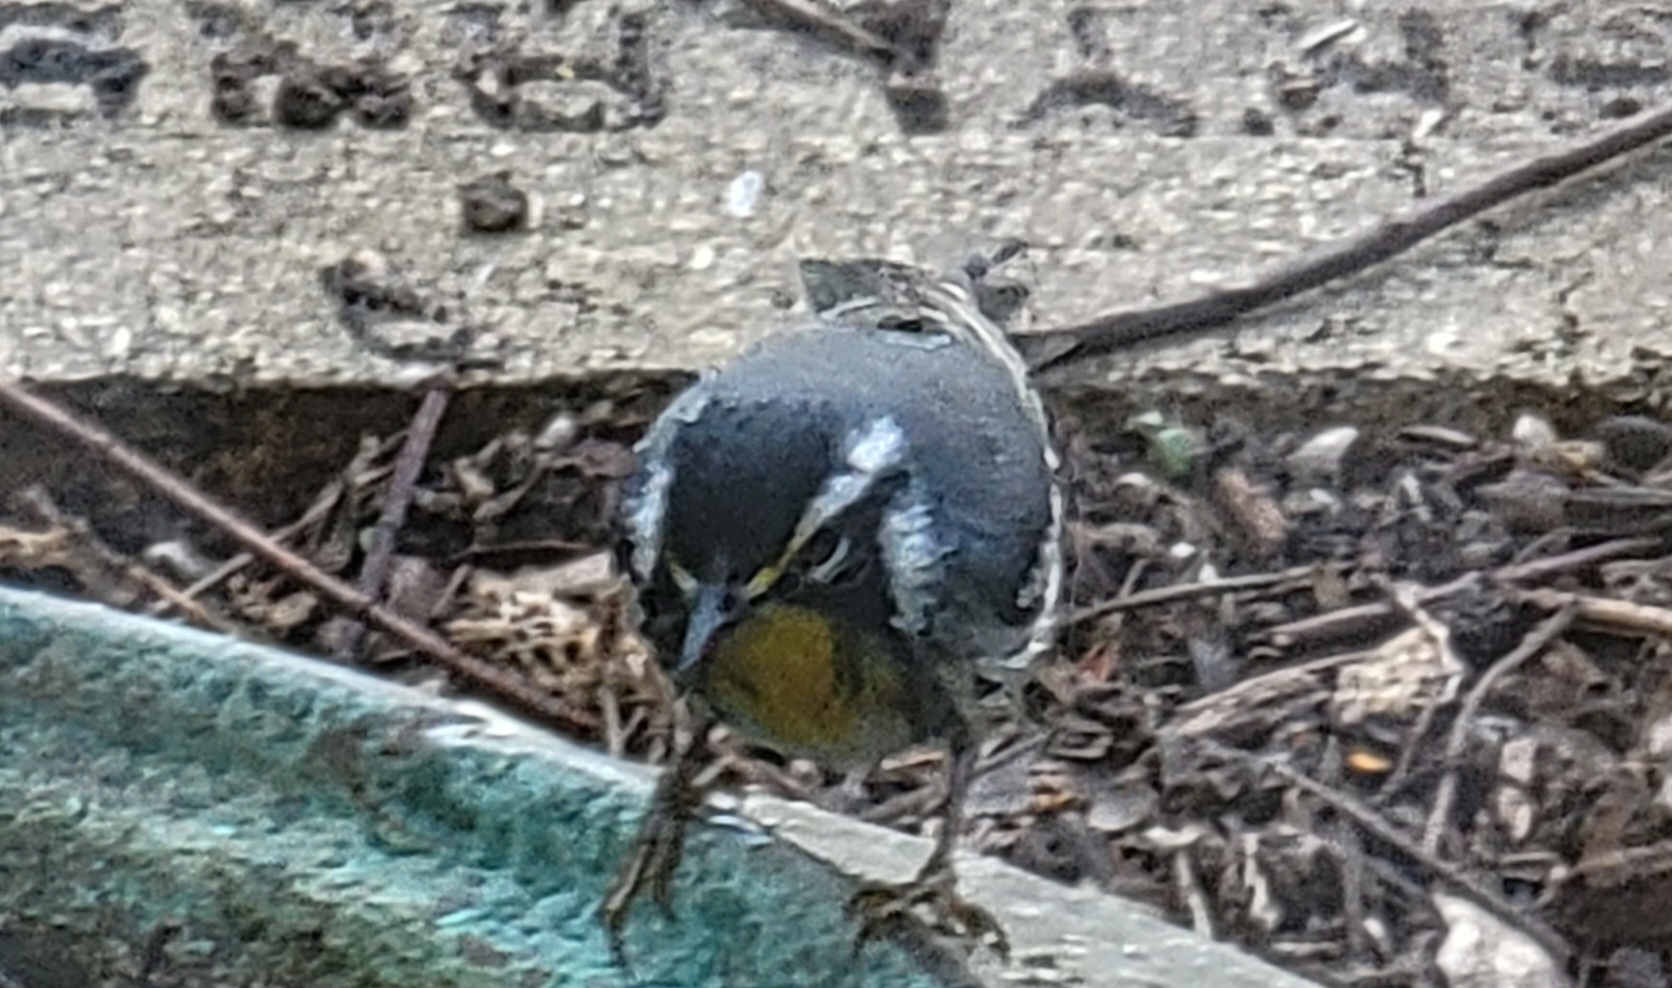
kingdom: Animalia
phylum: Chordata
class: Aves
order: Passeriformes
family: Parulidae
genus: Setophaga
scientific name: Setophaga dominica
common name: Yellow-throated warbler
